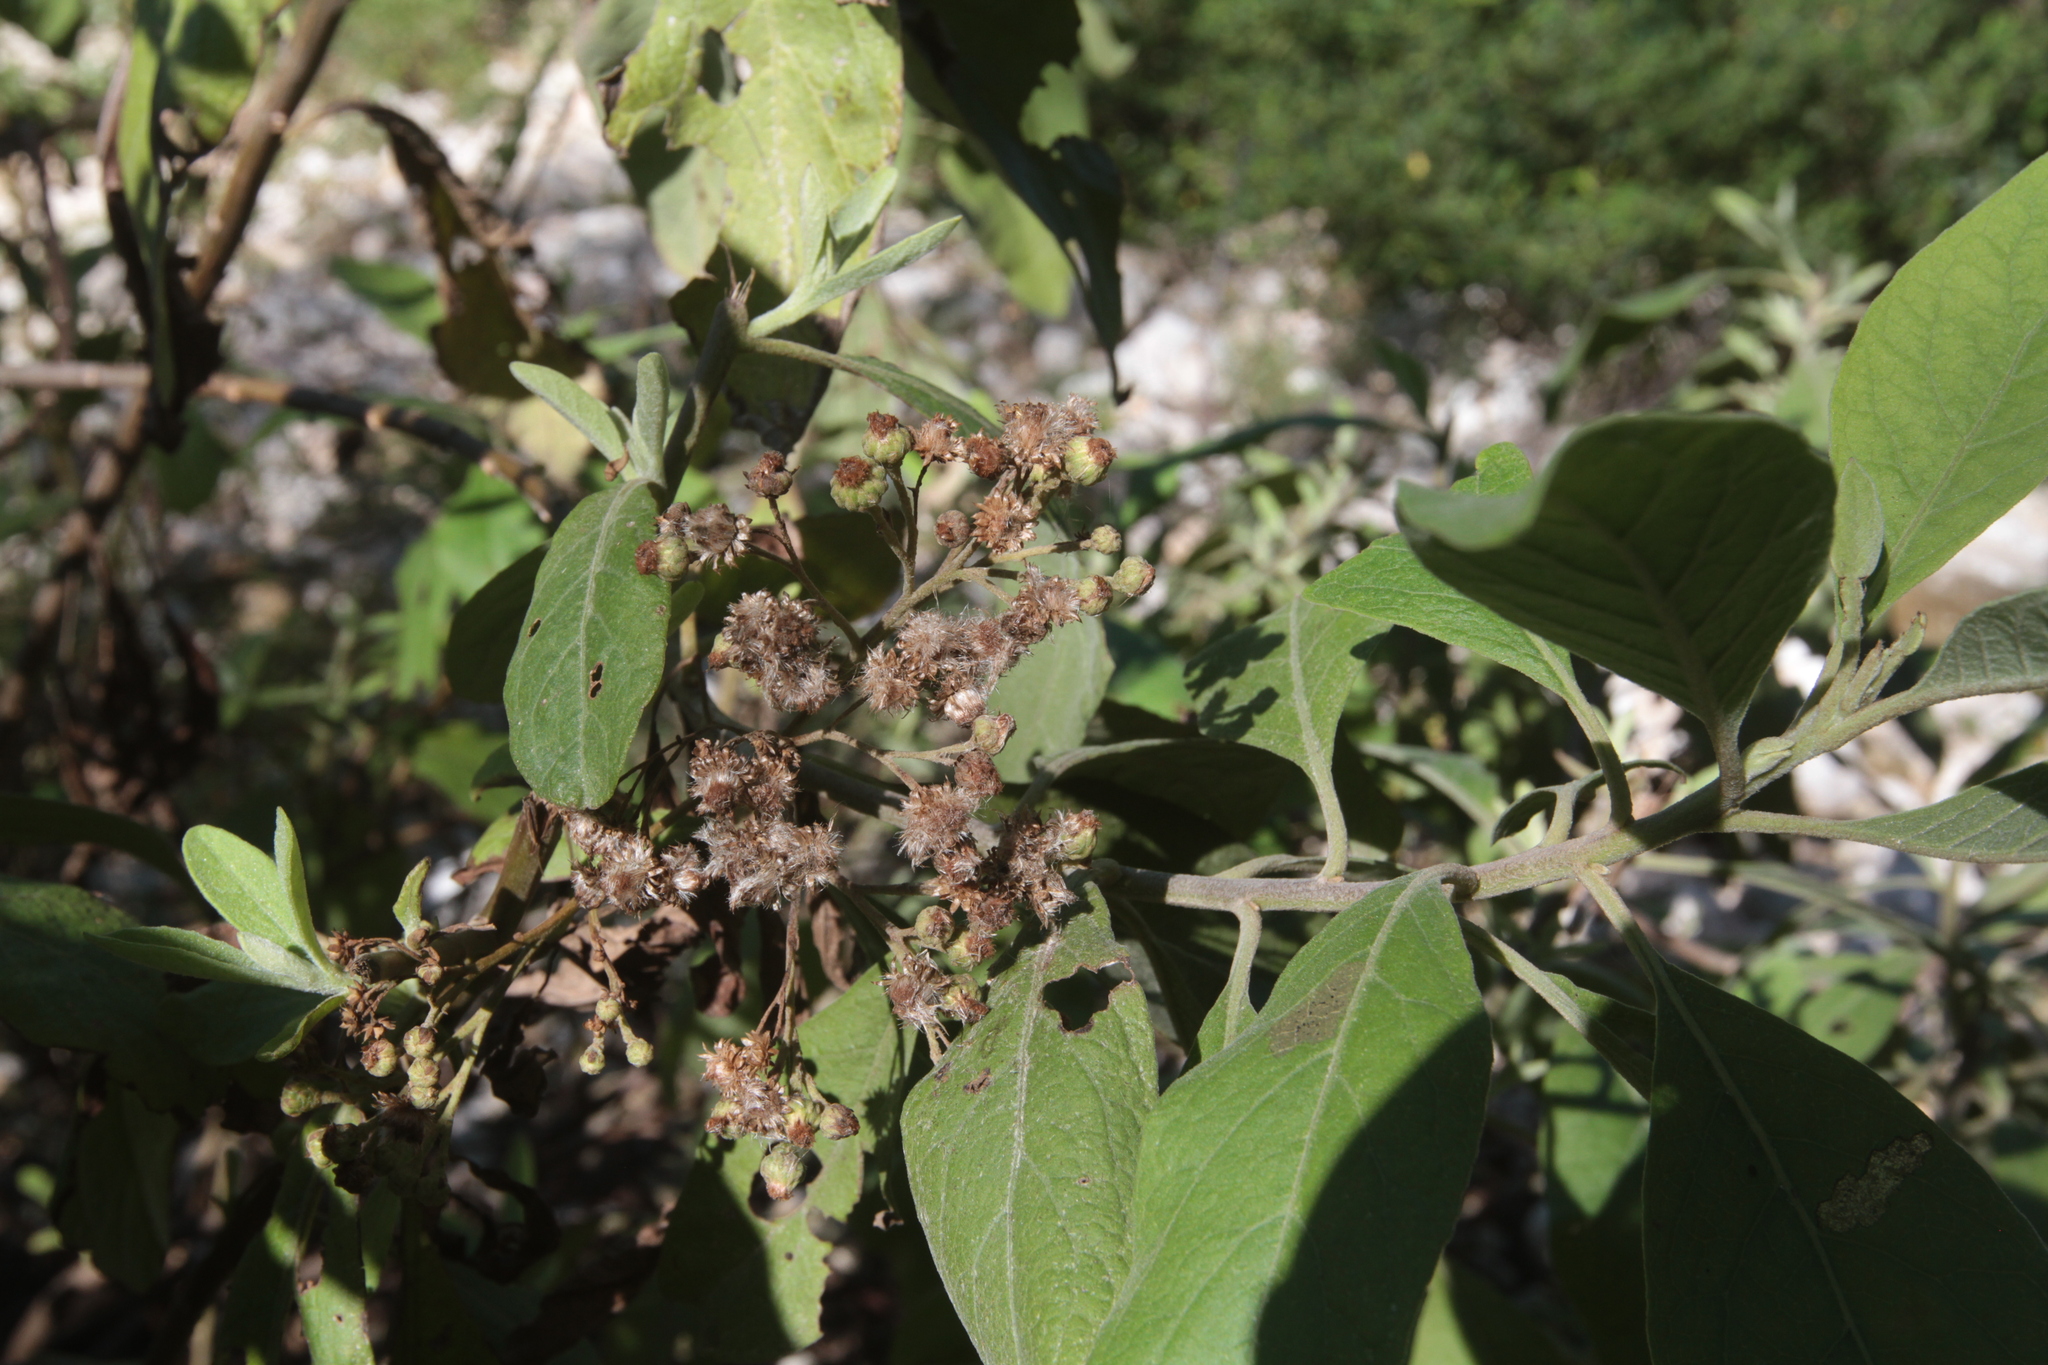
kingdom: Plantae
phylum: Tracheophyta
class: Magnoliopsida
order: Asterales
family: Asteraceae
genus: Pluchea
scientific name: Pluchea carolinensis
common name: Marsh fleabane
